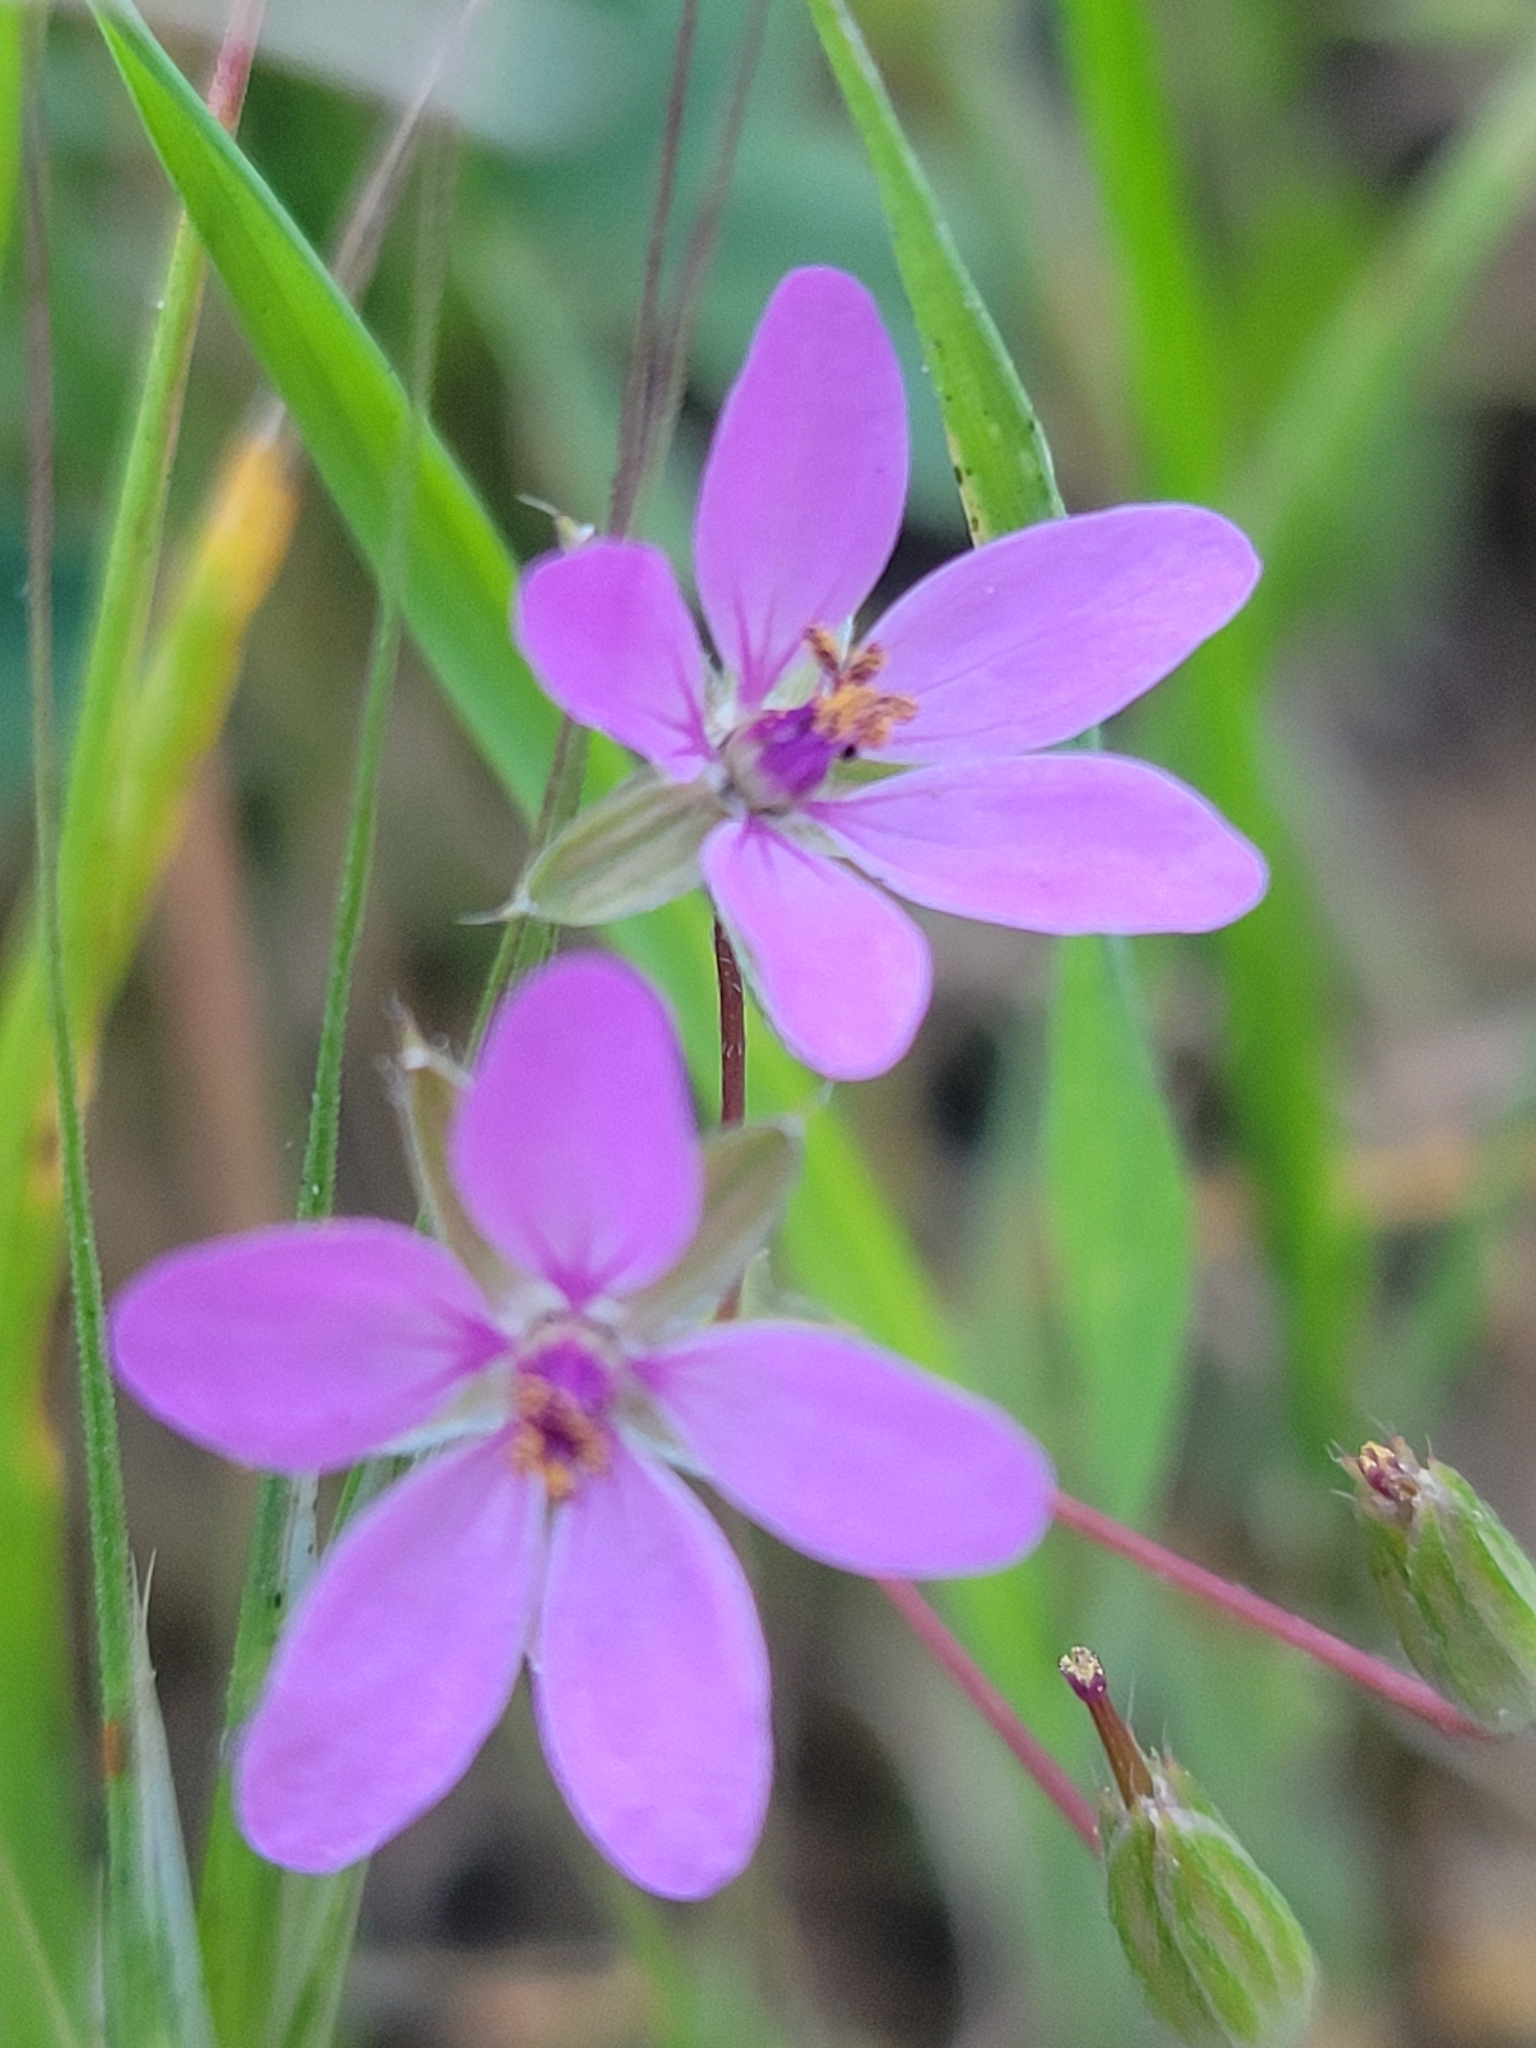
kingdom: Plantae
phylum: Tracheophyta
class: Magnoliopsida
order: Geraniales
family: Geraniaceae
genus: Erodium
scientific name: Erodium cicutarium
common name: Common stork's-bill
